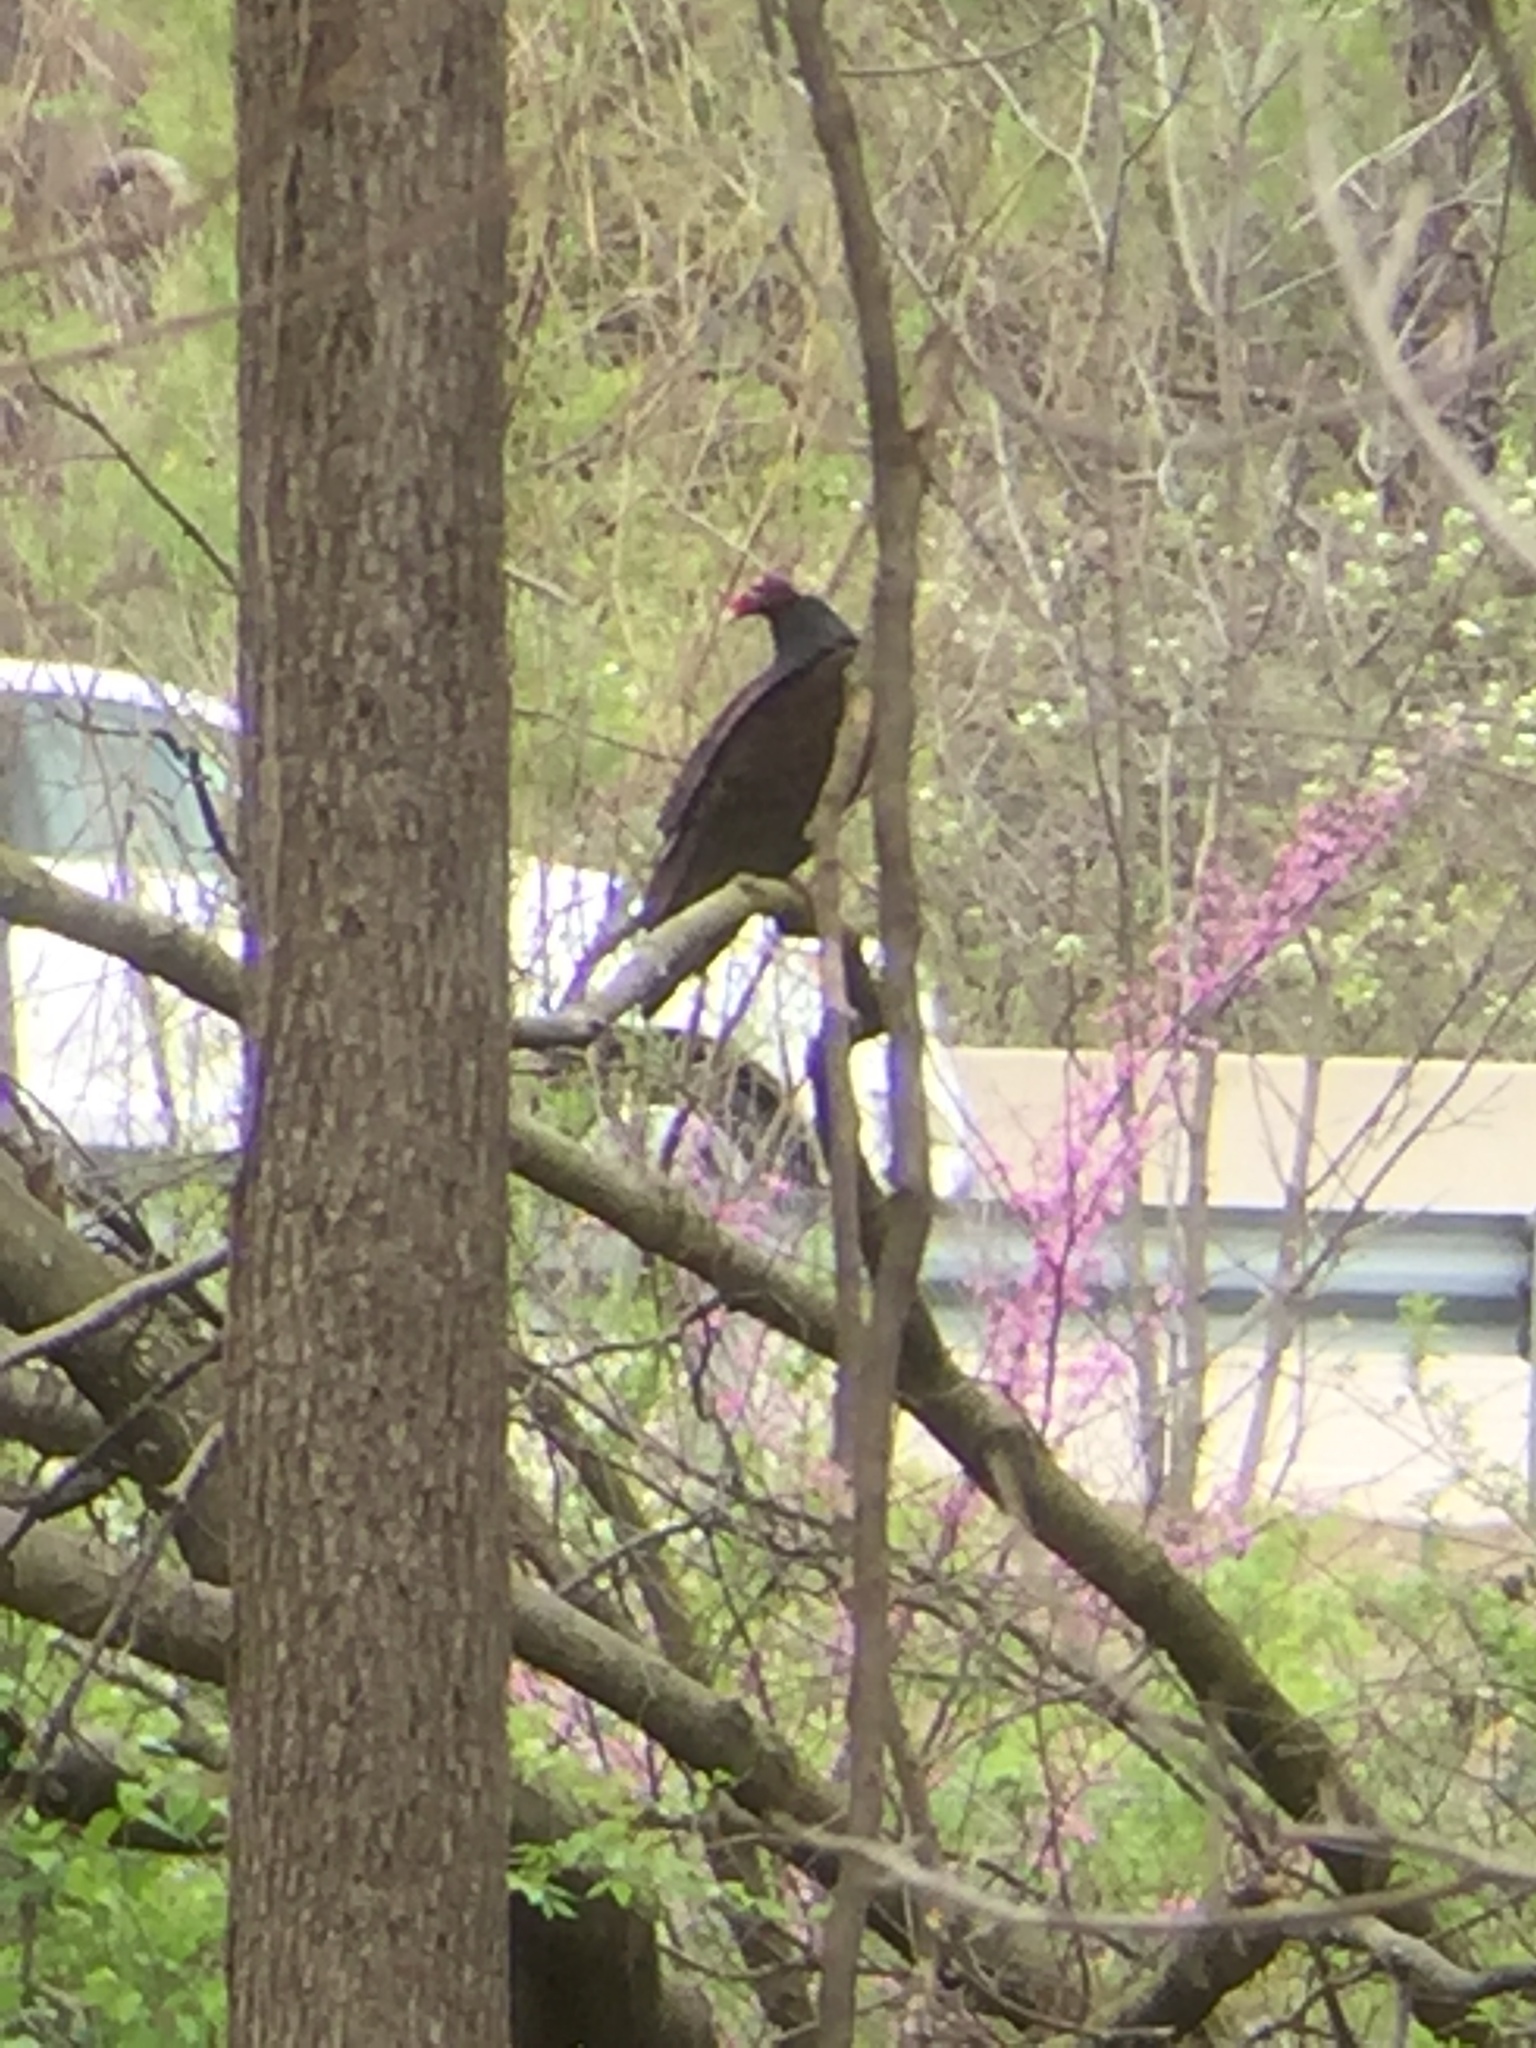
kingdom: Animalia
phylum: Chordata
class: Aves
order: Accipitriformes
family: Cathartidae
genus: Cathartes
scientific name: Cathartes aura
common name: Turkey vulture
